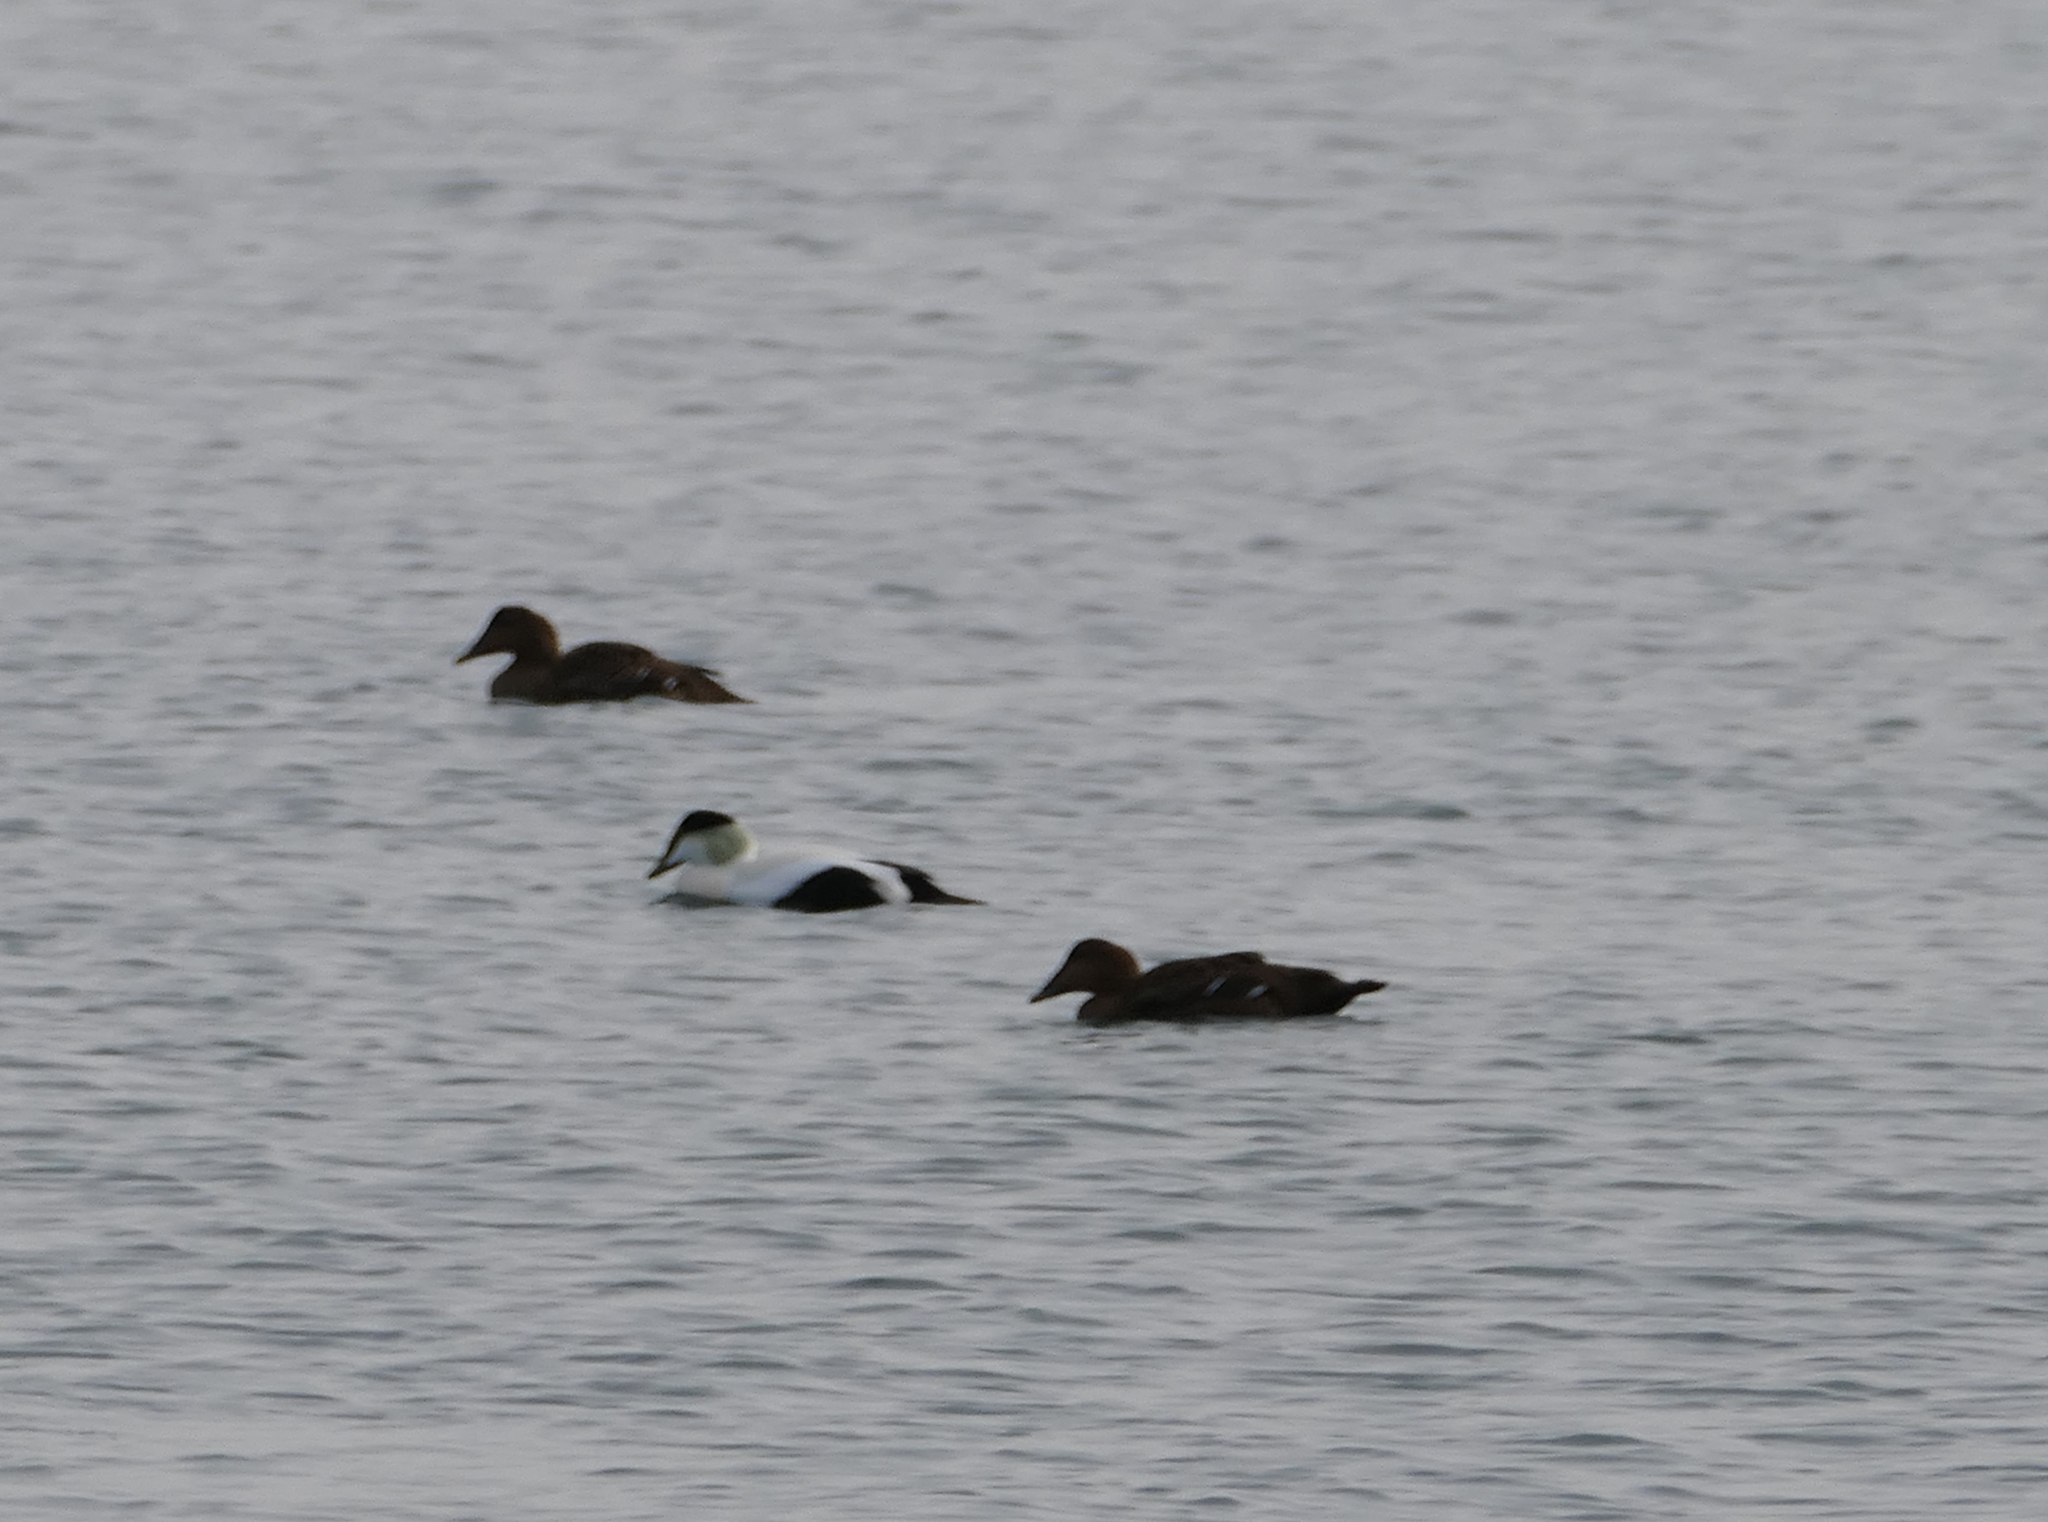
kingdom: Animalia
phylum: Chordata
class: Aves
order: Anseriformes
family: Anatidae
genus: Somateria
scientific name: Somateria mollissima
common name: Common eider
